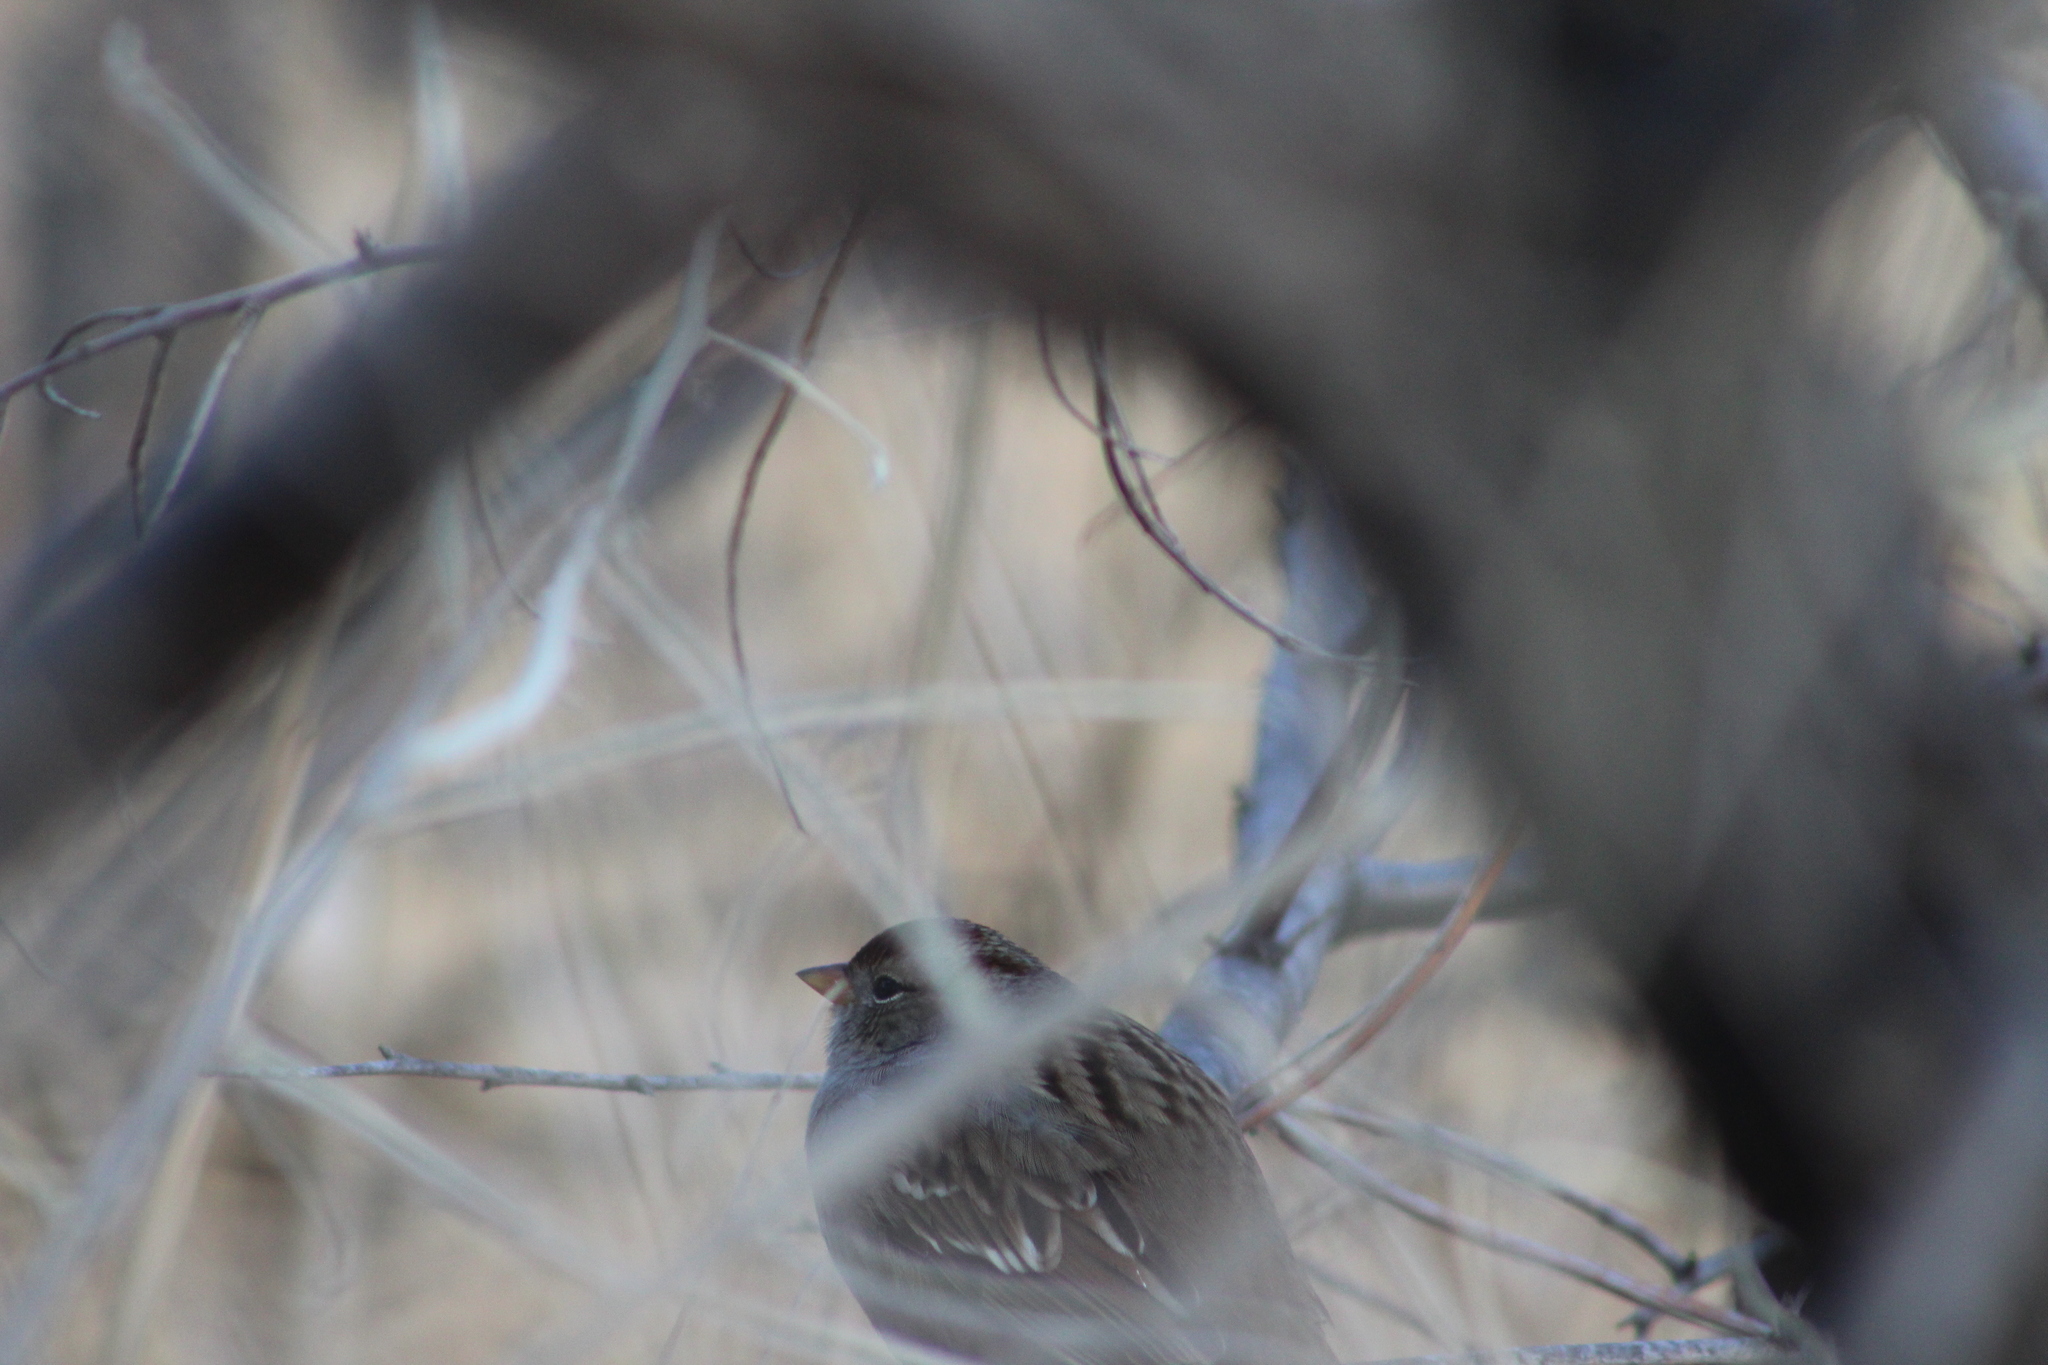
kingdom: Animalia
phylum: Chordata
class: Aves
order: Passeriformes
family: Passerellidae
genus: Zonotrichia
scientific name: Zonotrichia leucophrys
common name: White-crowned sparrow
